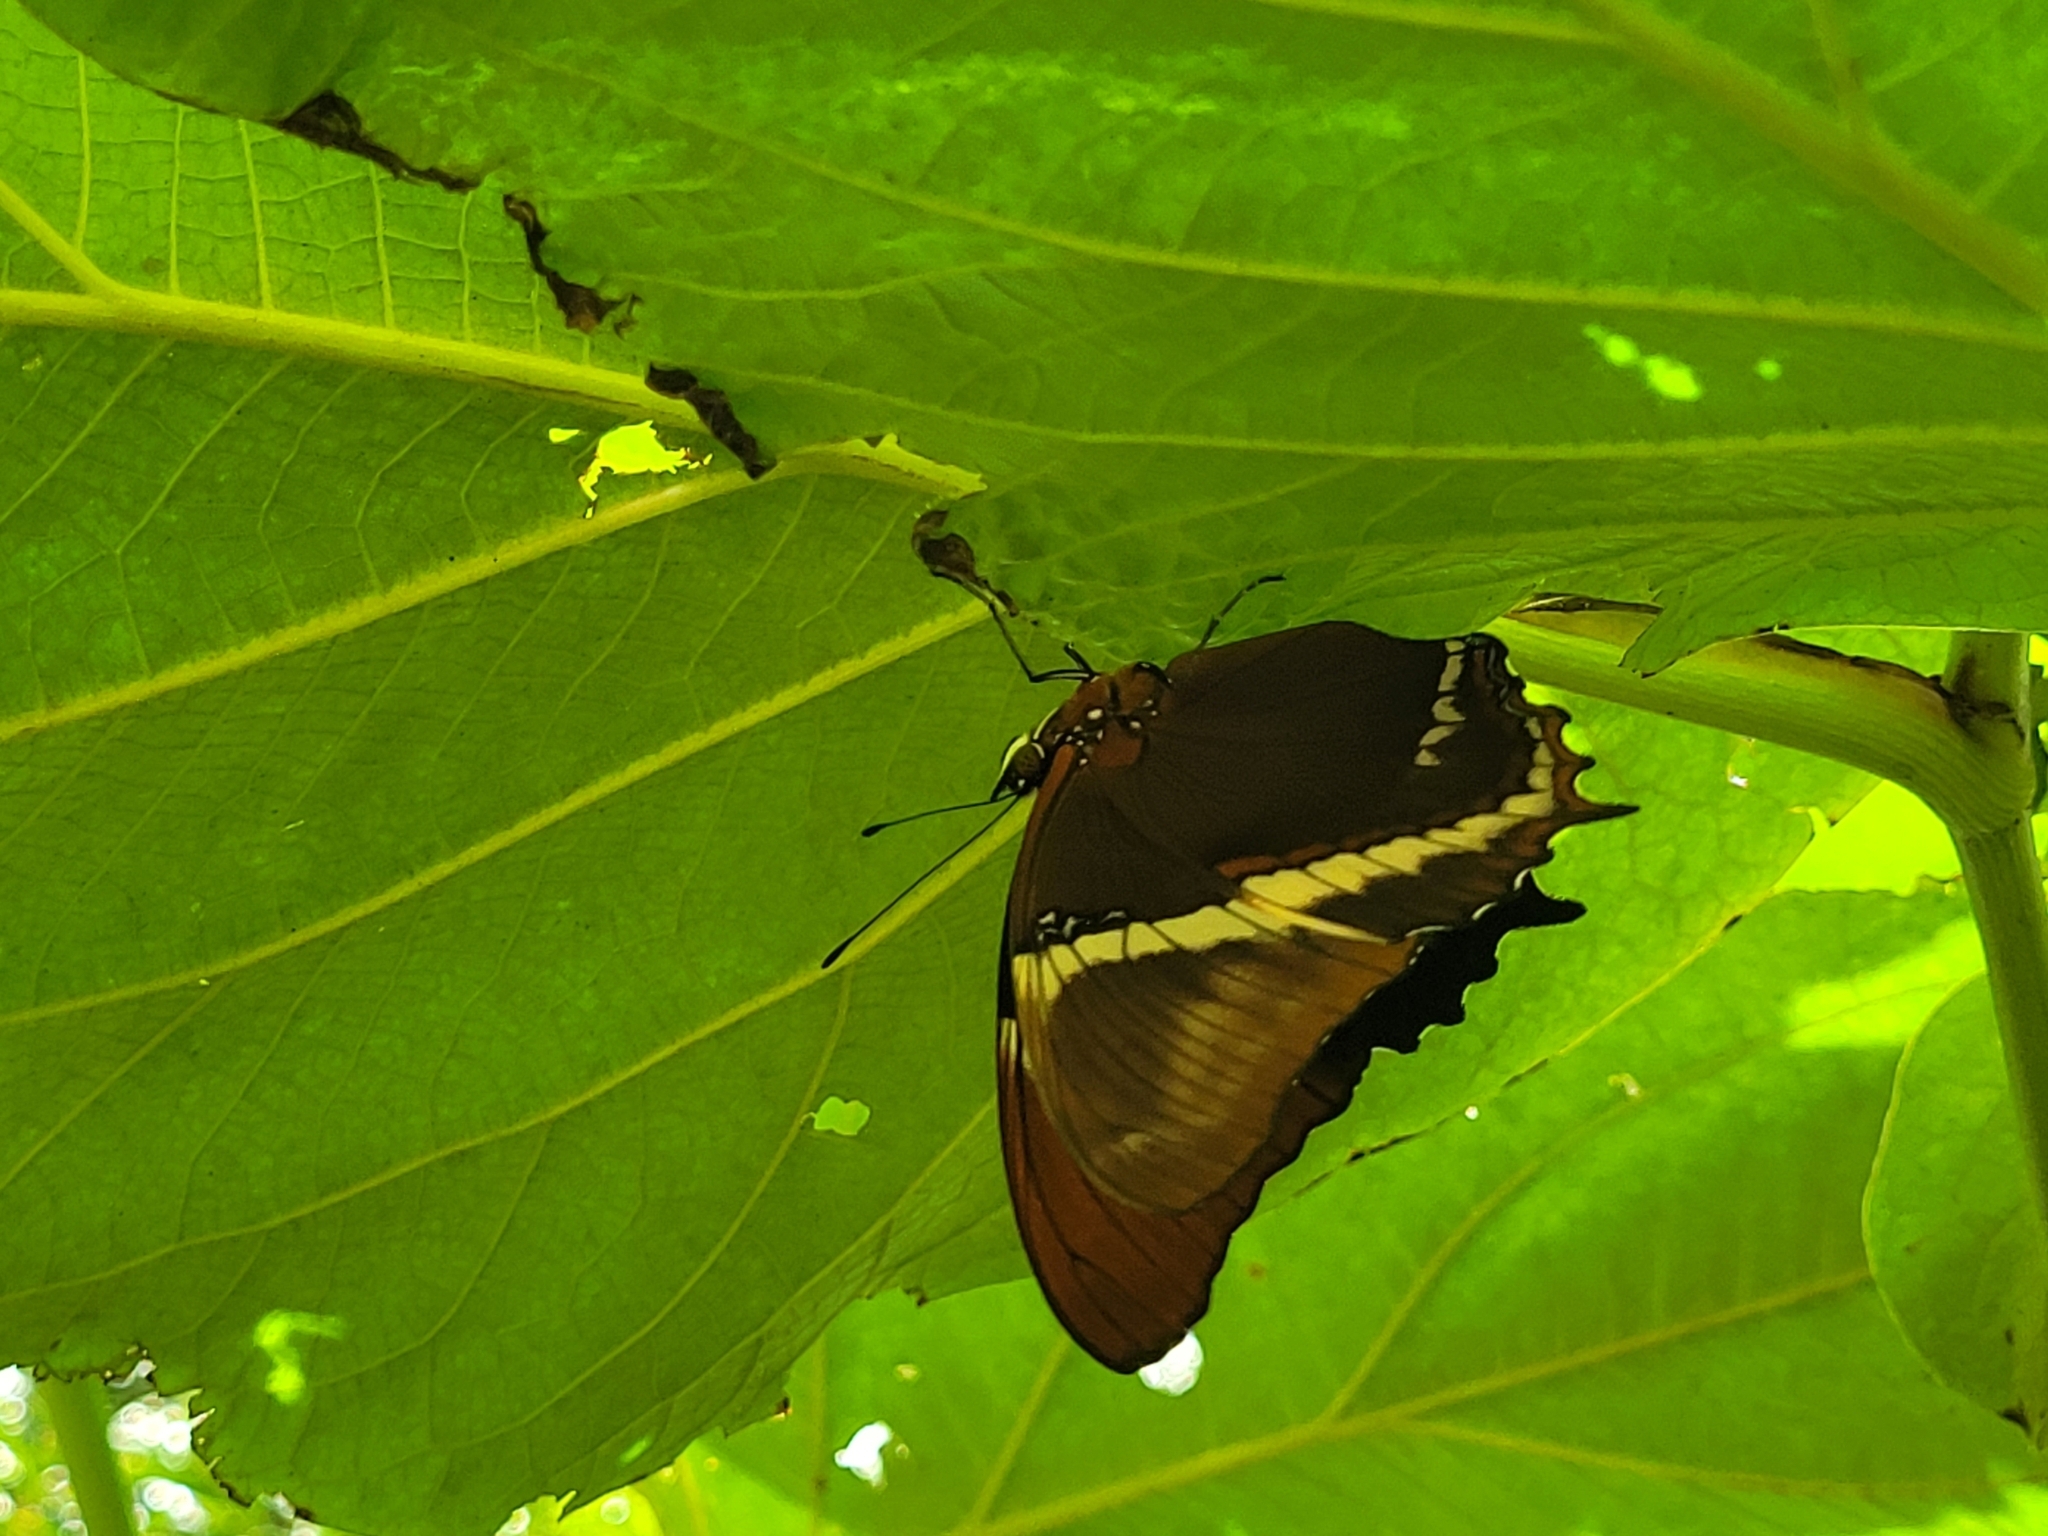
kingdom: Animalia
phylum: Arthropoda
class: Insecta
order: Lepidoptera
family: Nymphalidae
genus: Siproeta
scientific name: Siproeta epaphus
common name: Rusty-tipped page
